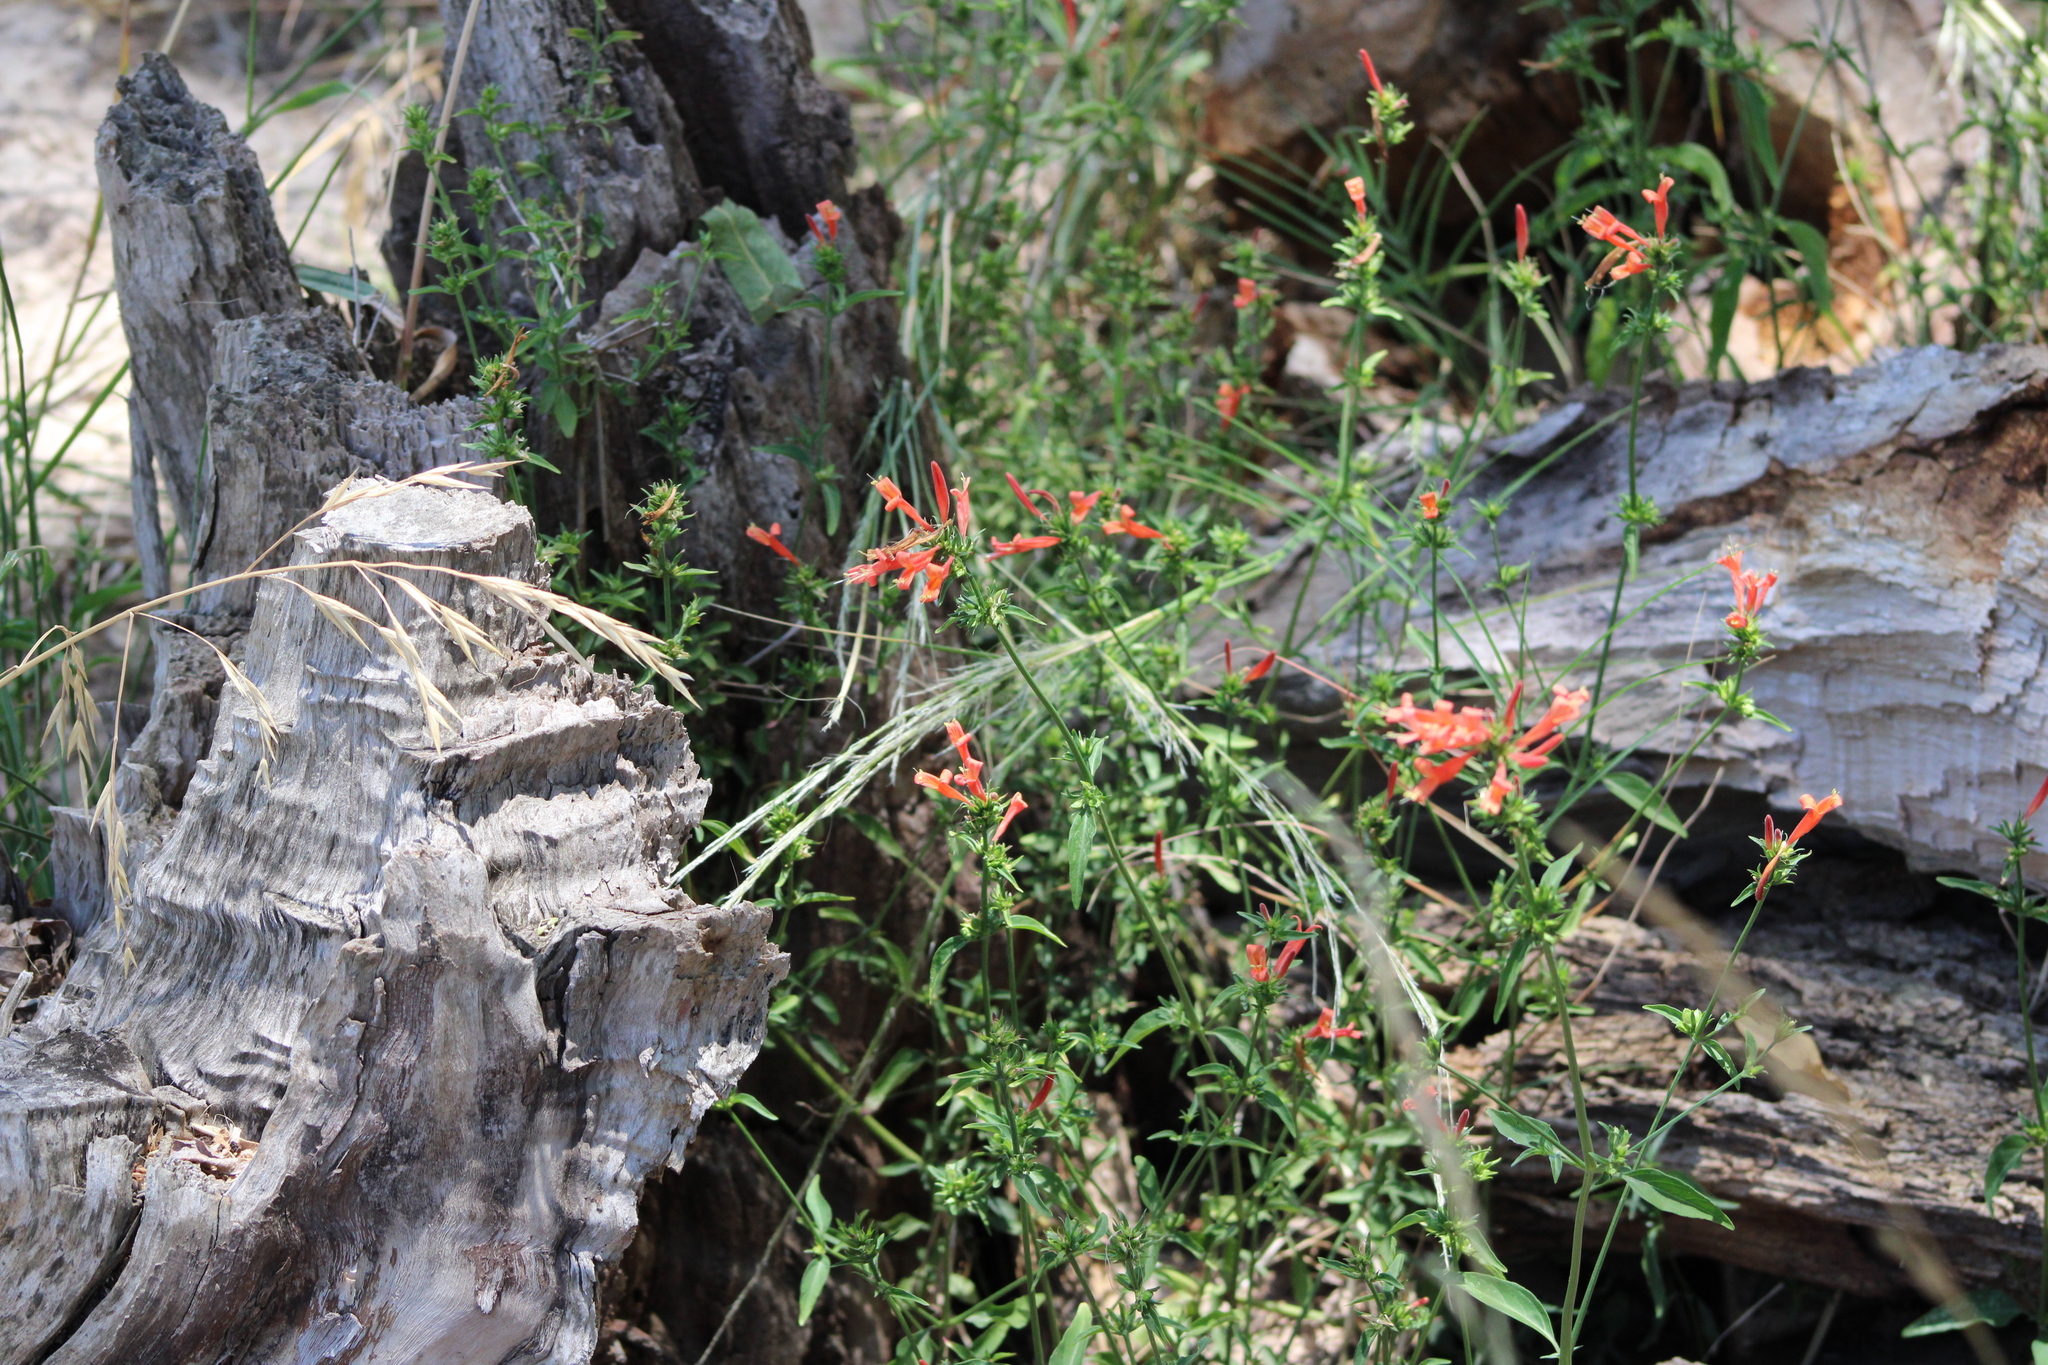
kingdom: Plantae
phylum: Tracheophyta
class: Magnoliopsida
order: Lamiales
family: Acanthaceae
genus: Dicliptera
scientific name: Dicliptera squarrosa
